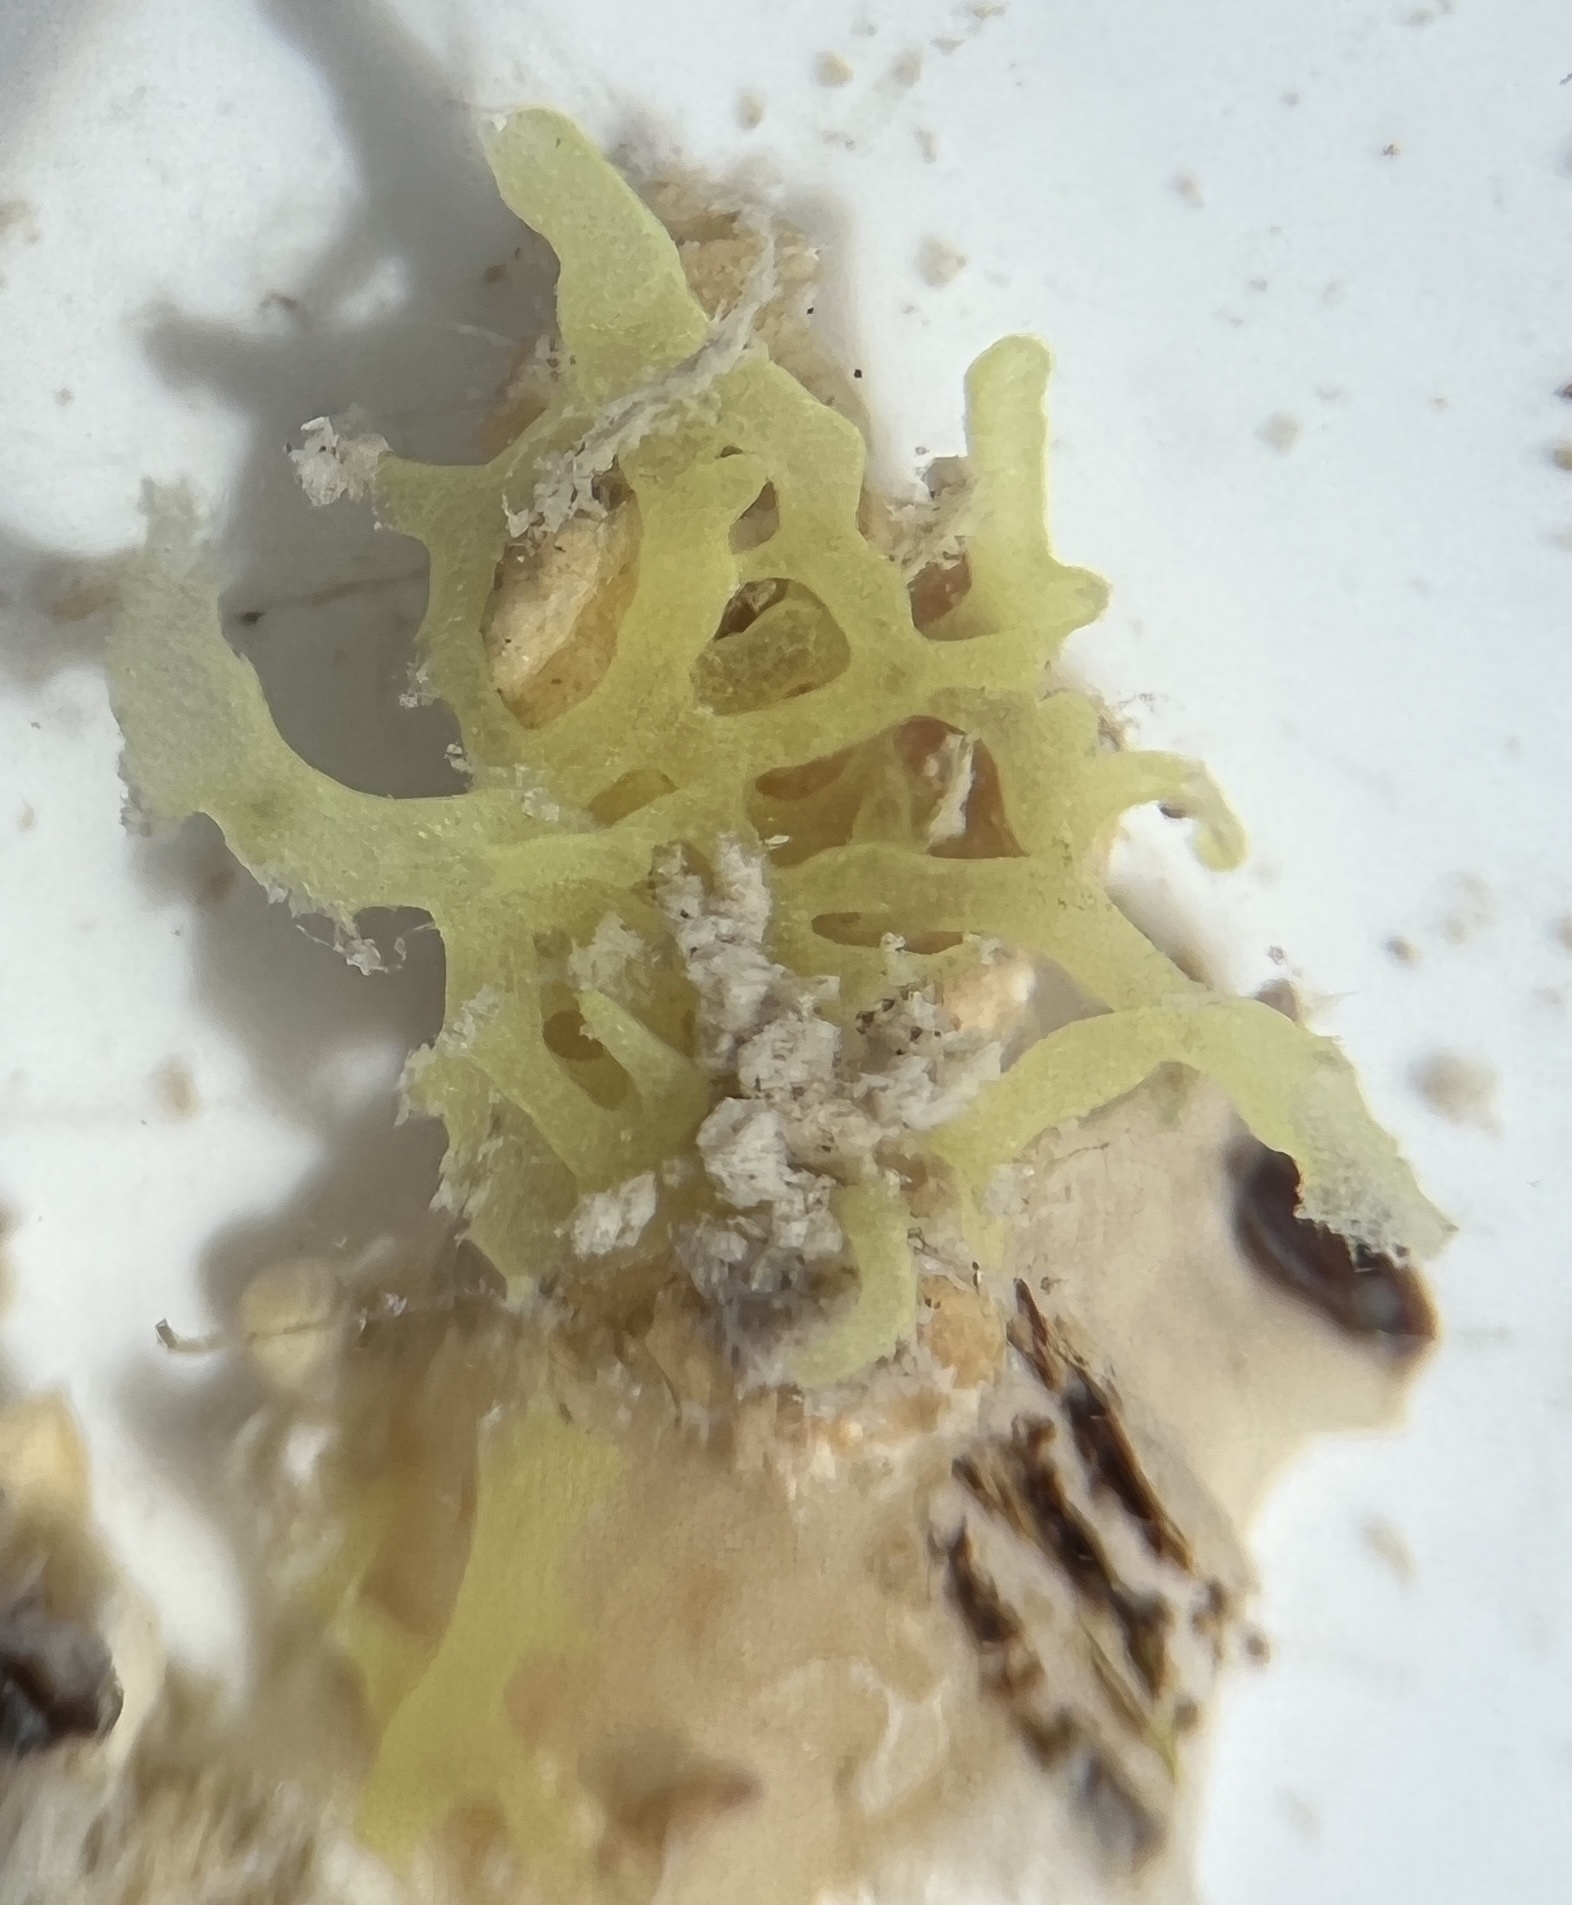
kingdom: Animalia
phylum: Porifera
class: Calcarea
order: Clathrinida
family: Clathrinidae
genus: Clathrina
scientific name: Clathrina clathrus
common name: Yellow clathrina
